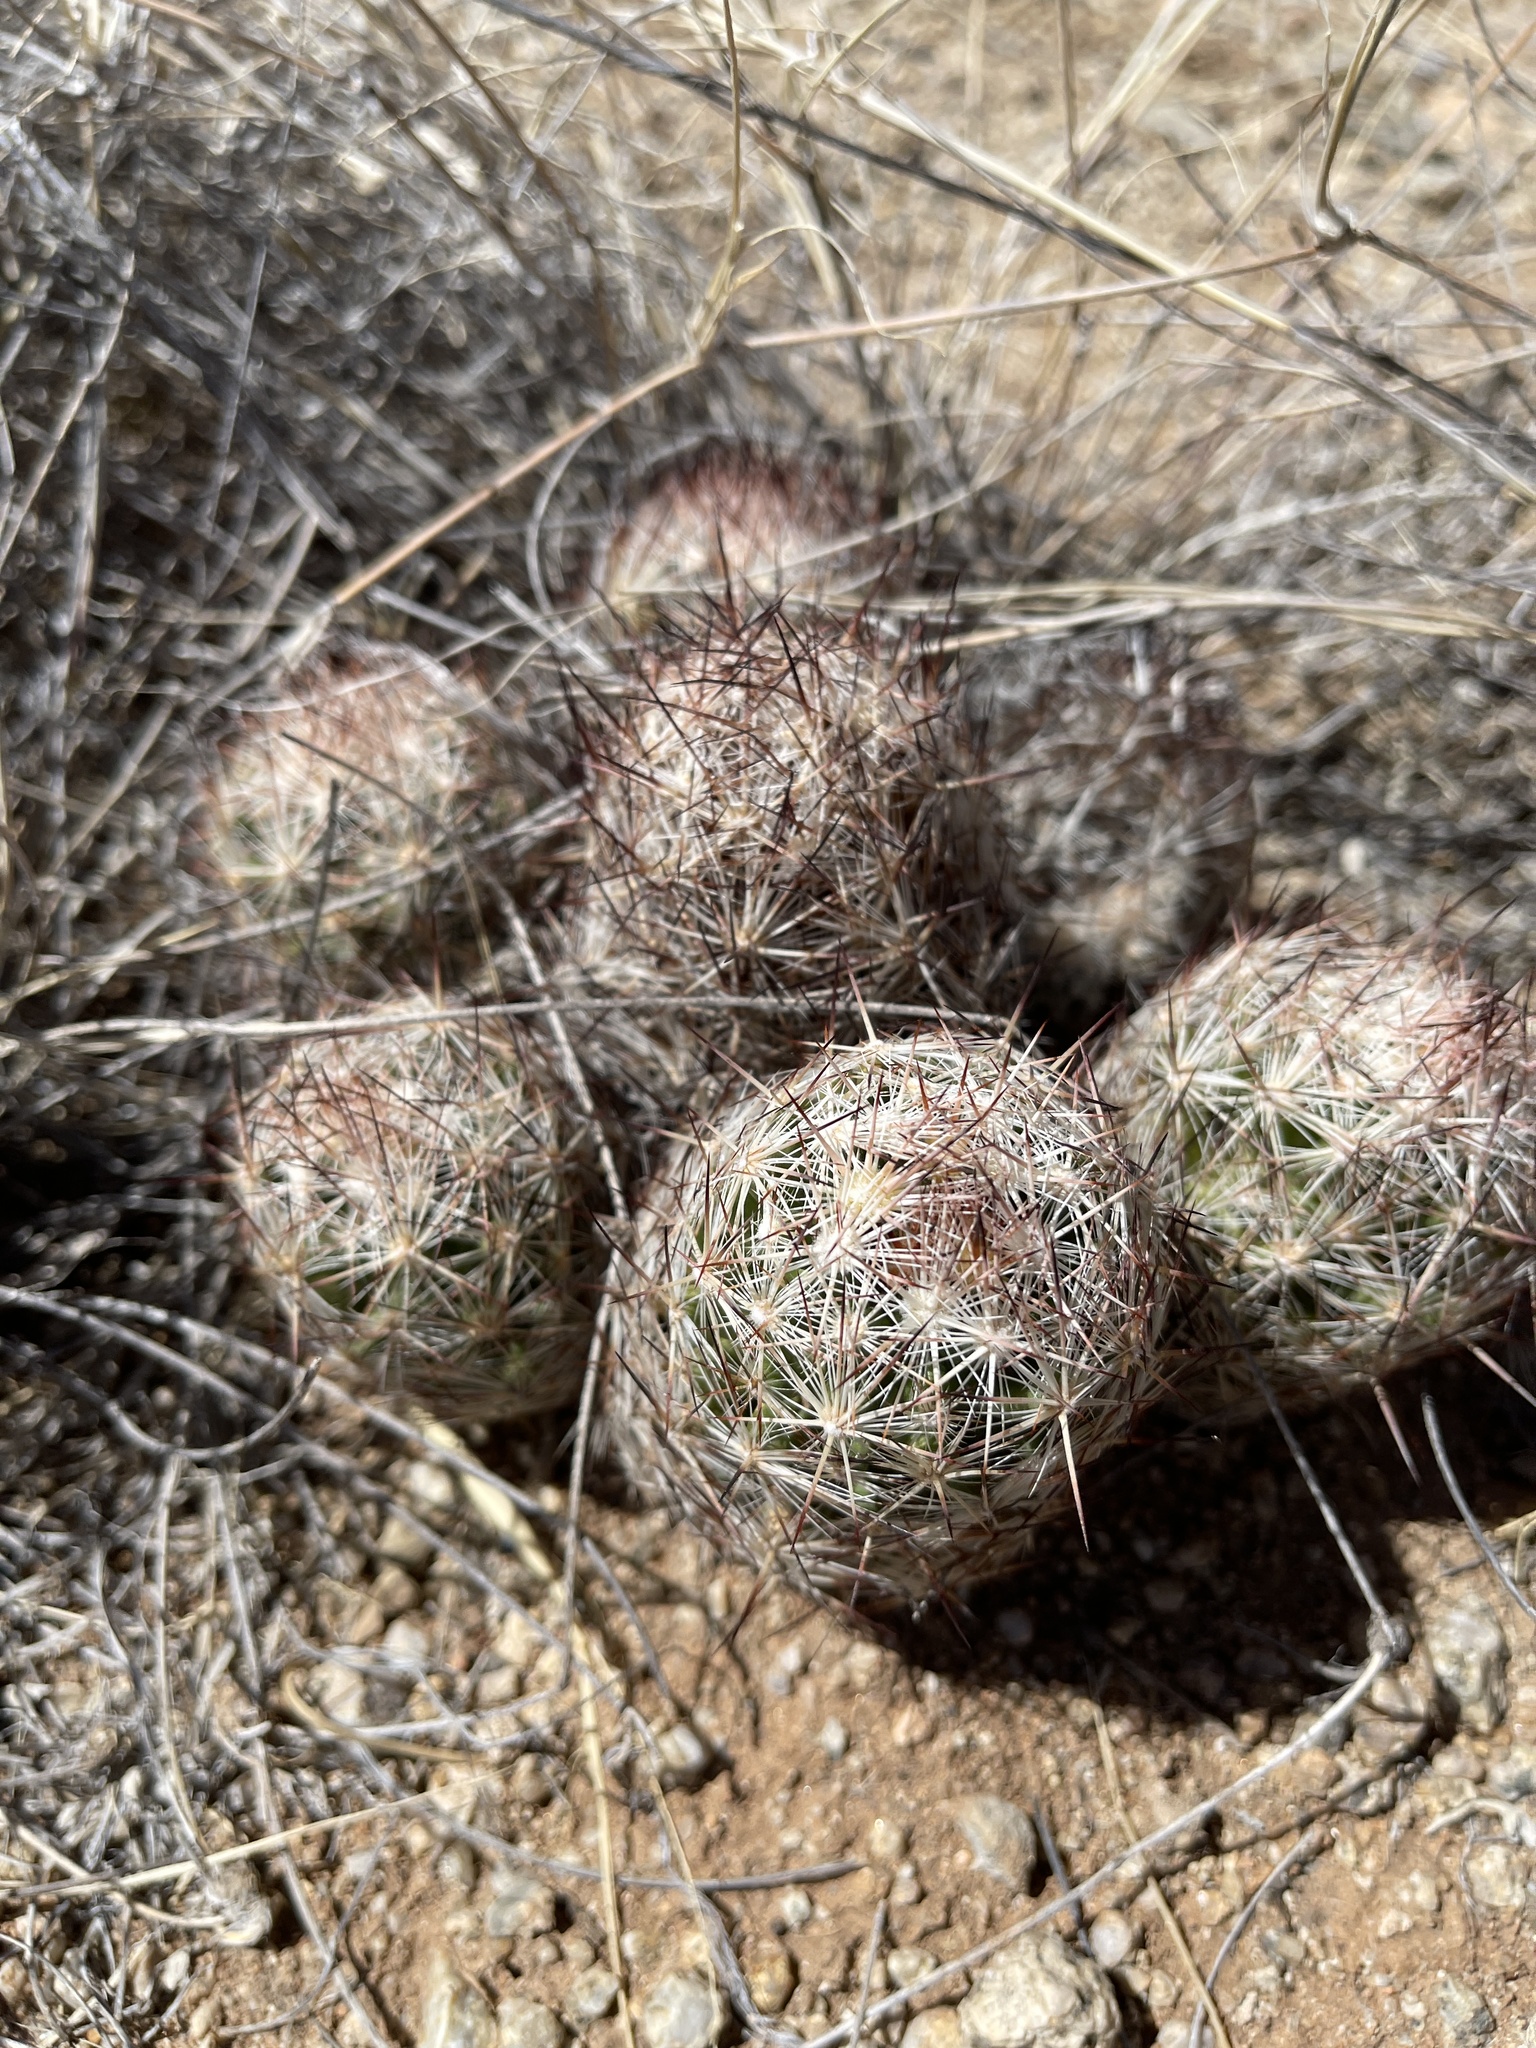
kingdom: Plantae
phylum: Tracheophyta
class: Magnoliopsida
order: Caryophyllales
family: Cactaceae
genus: Pelecyphora
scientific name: Pelecyphora vivipara
